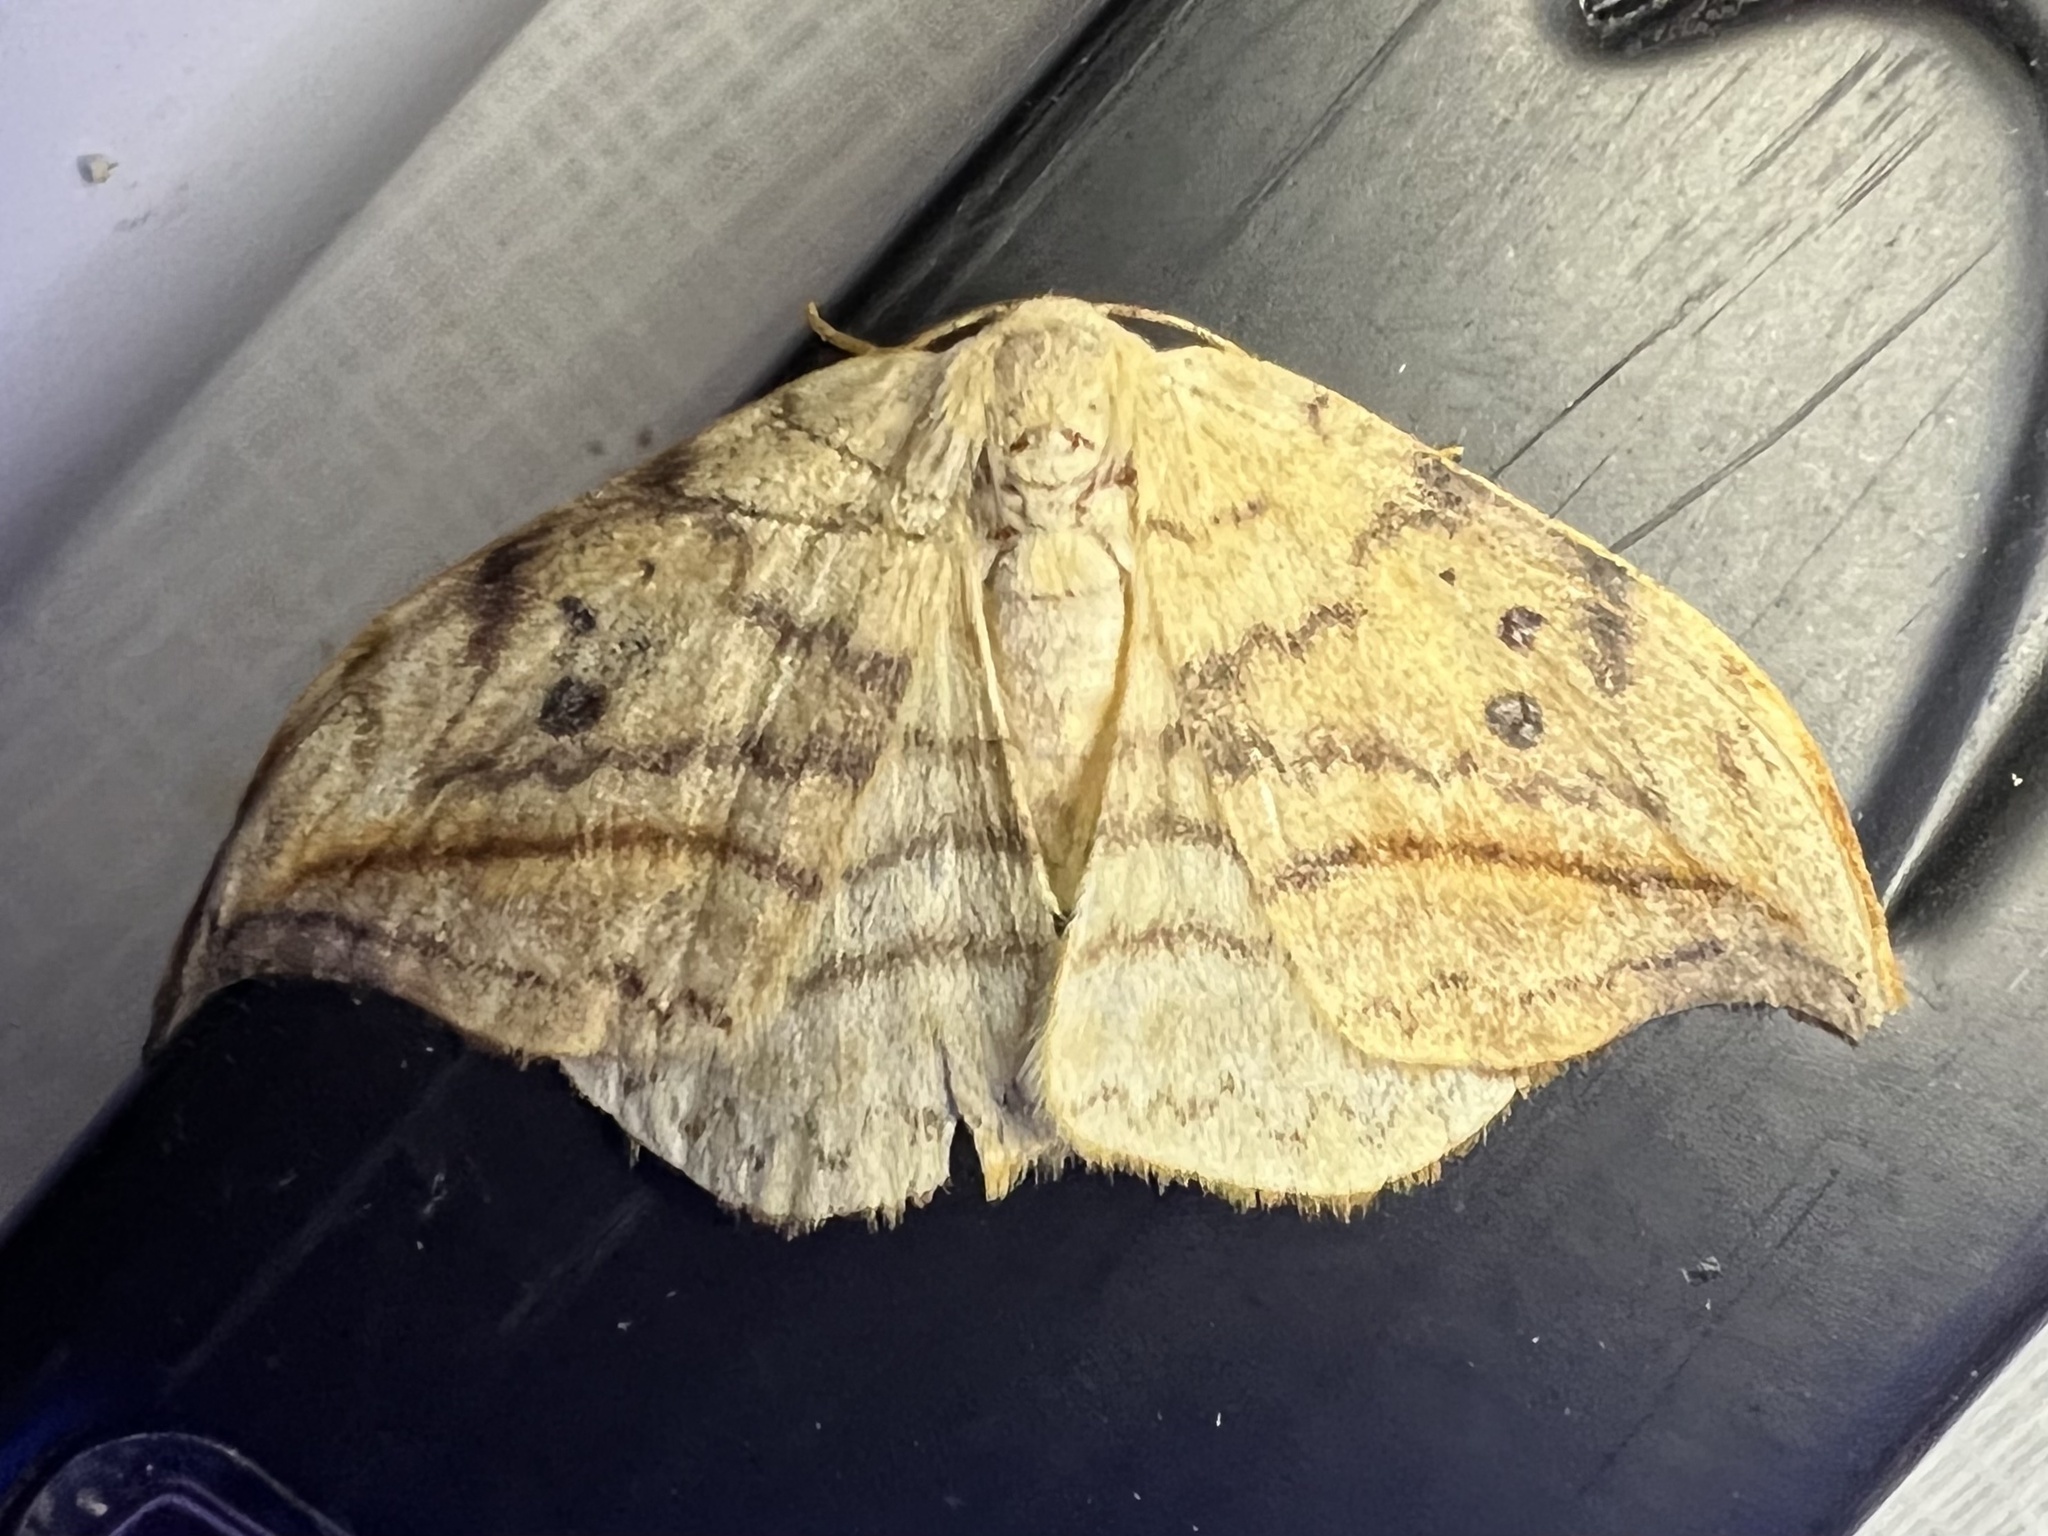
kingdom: Animalia
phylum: Arthropoda
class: Insecta
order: Lepidoptera
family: Drepanidae
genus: Drepana
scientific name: Drepana arcuata
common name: Arched hooktip moth
